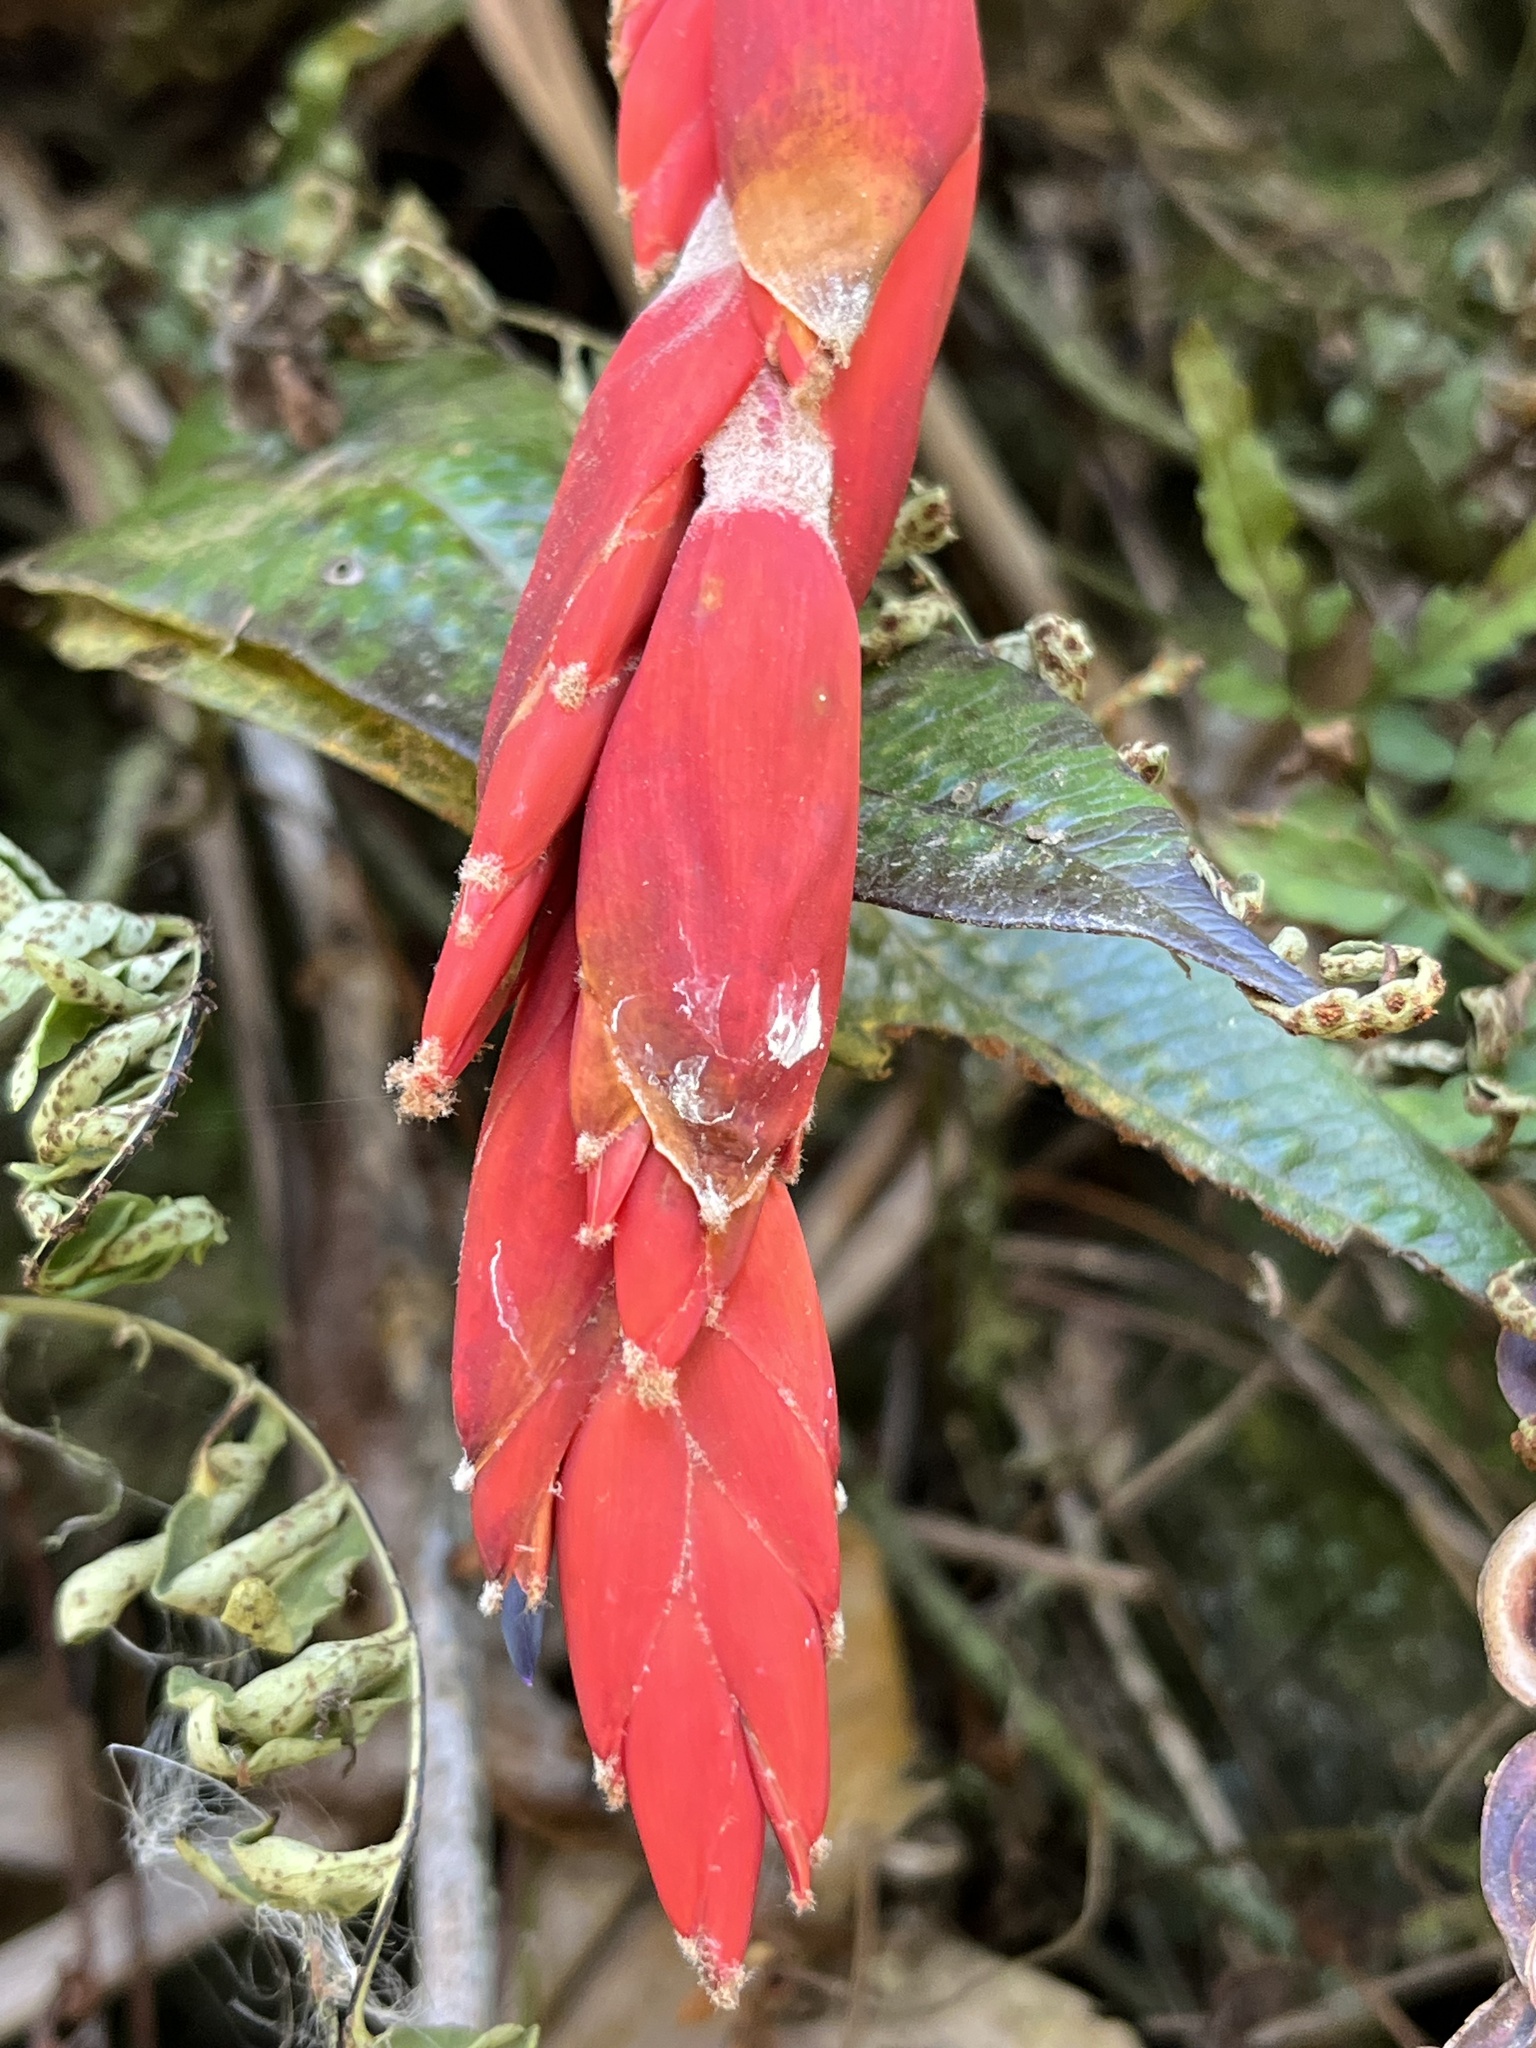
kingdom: Plantae
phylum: Tracheophyta
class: Liliopsida
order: Poales
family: Bromeliaceae
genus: Vriesea
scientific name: Vriesea tequendamae
